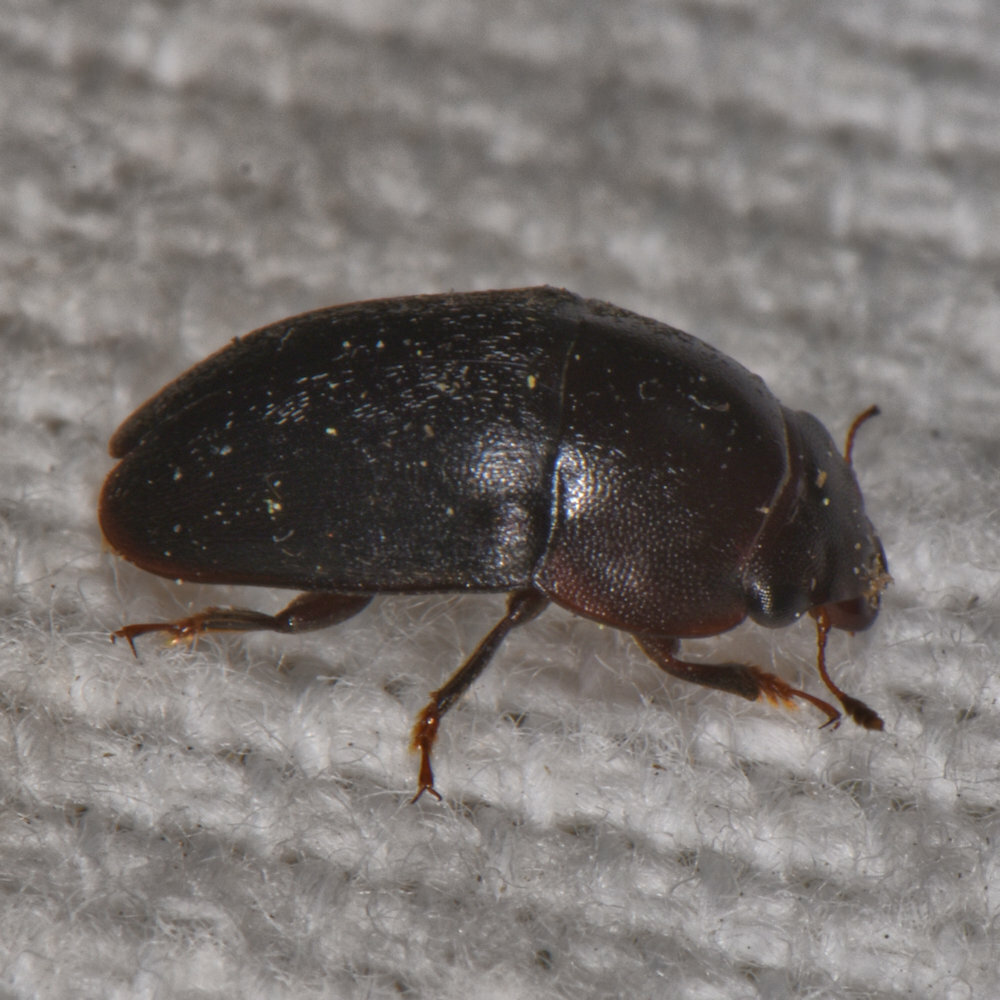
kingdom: Animalia
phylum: Arthropoda
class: Insecta
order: Coleoptera
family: Nitidulidae
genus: Cryptarcha
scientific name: Cryptarcha ampla
